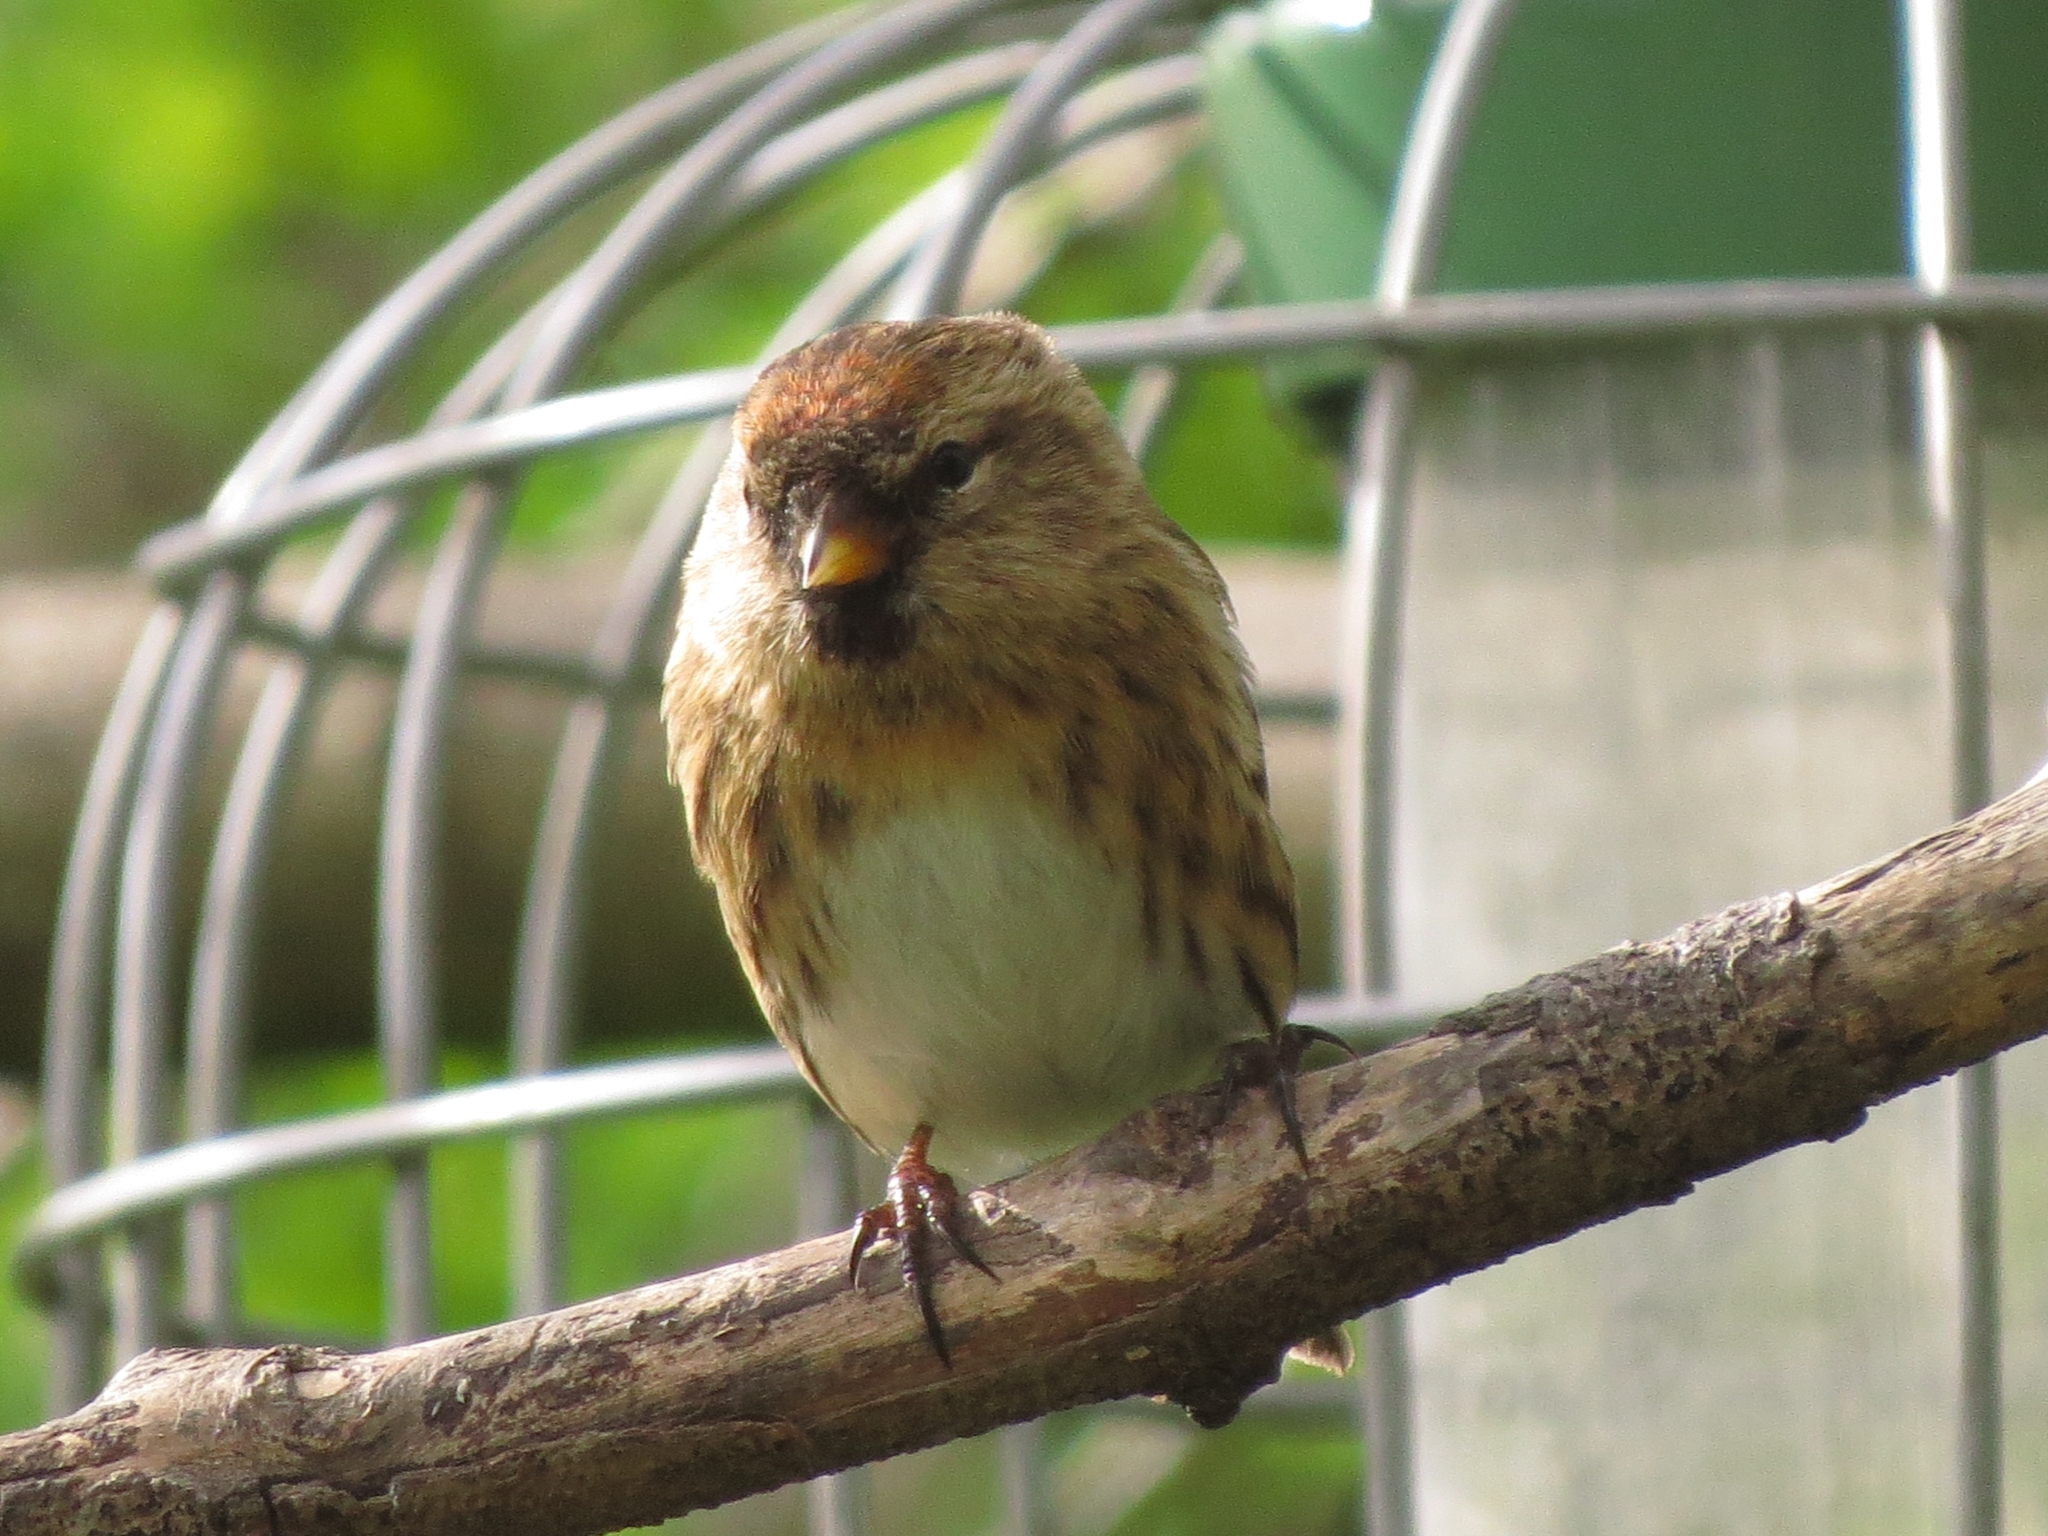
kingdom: Animalia
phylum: Chordata
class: Aves
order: Passeriformes
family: Fringillidae
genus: Acanthis
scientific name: Acanthis flammea
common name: Common redpoll
